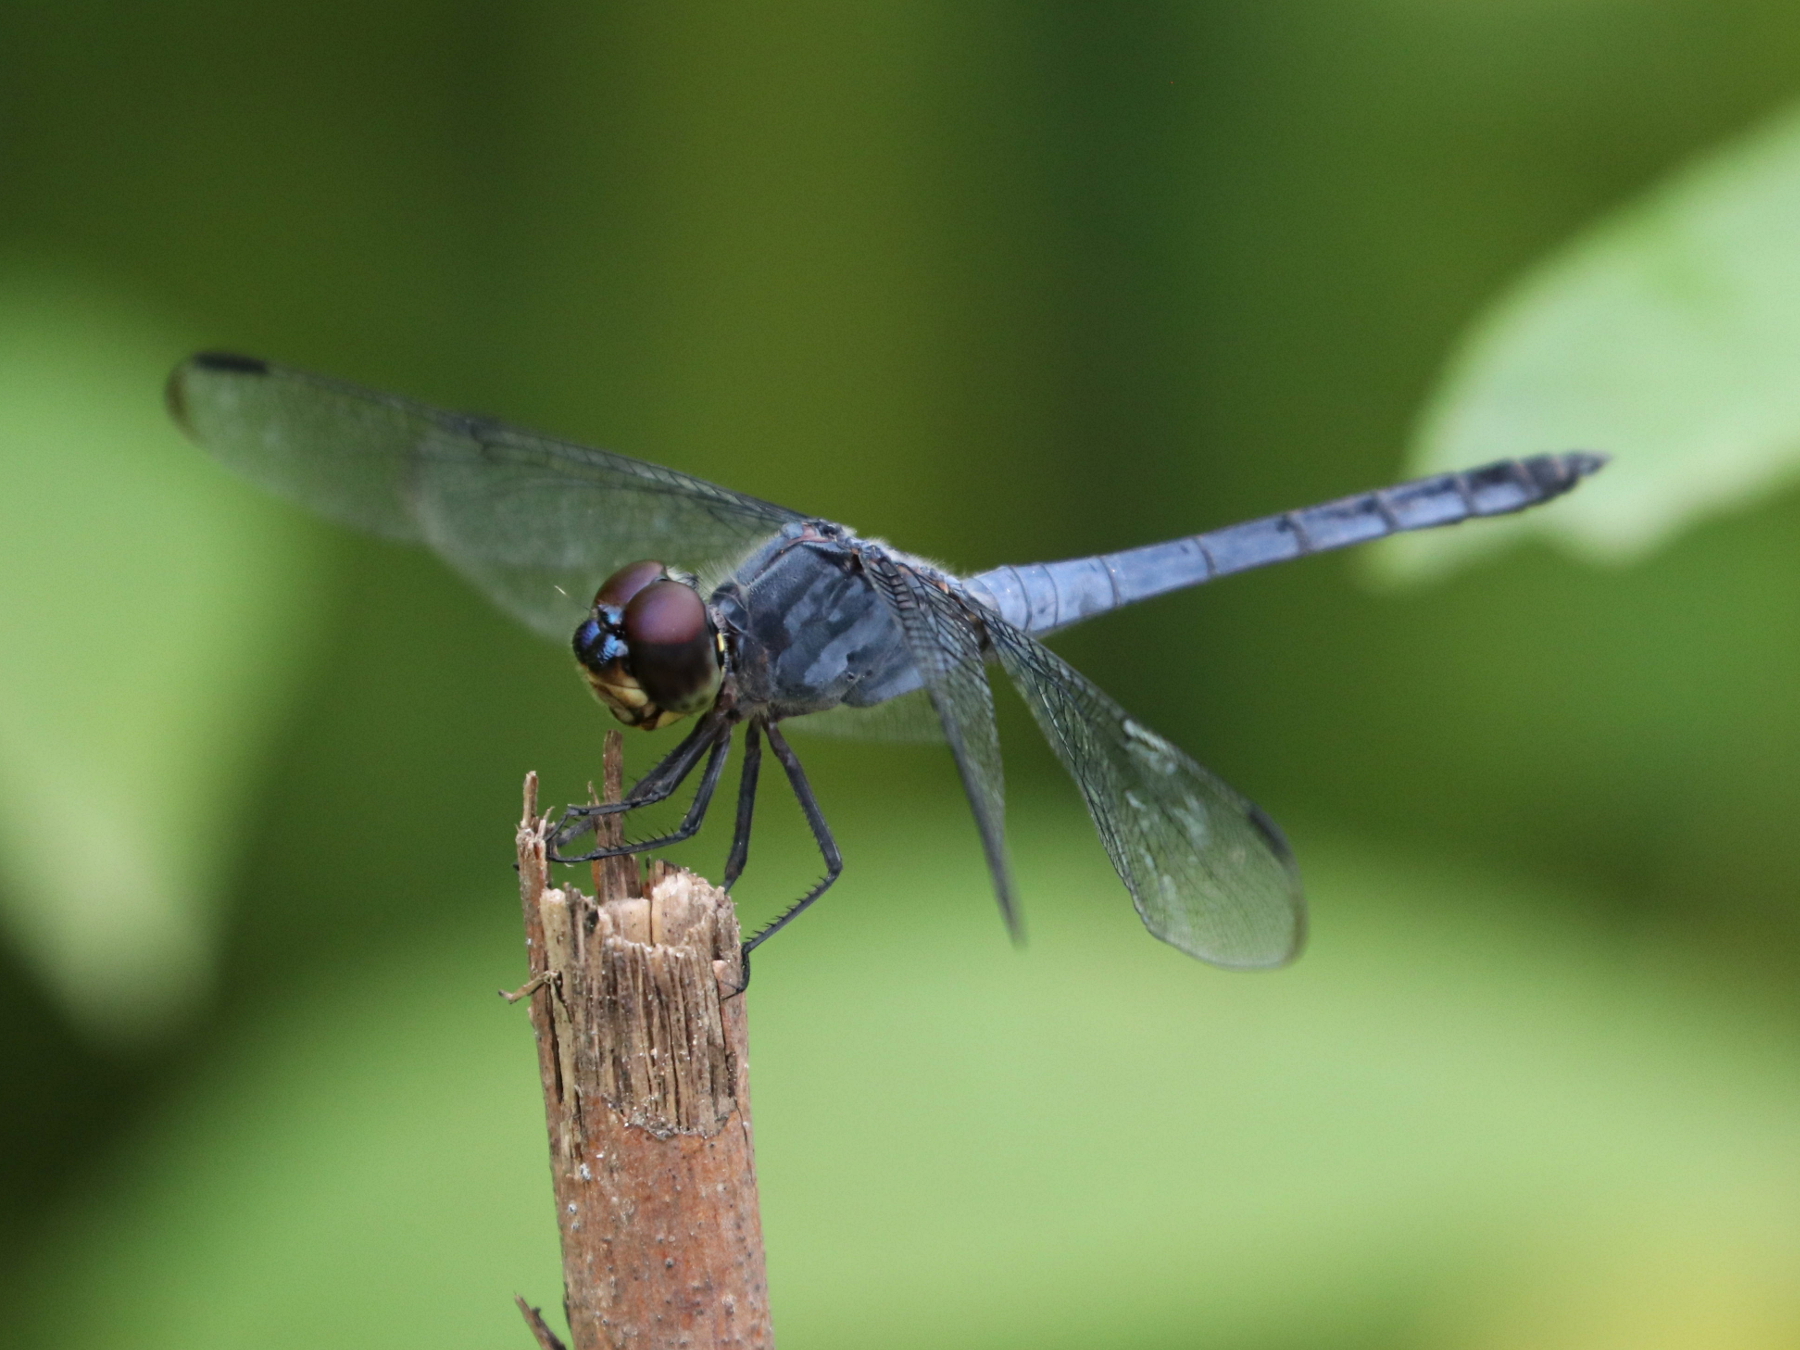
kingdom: Animalia
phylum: Arthropoda
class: Insecta
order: Odonata
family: Libellulidae
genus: Potamarcha
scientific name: Potamarcha congener
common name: Blue chaser
